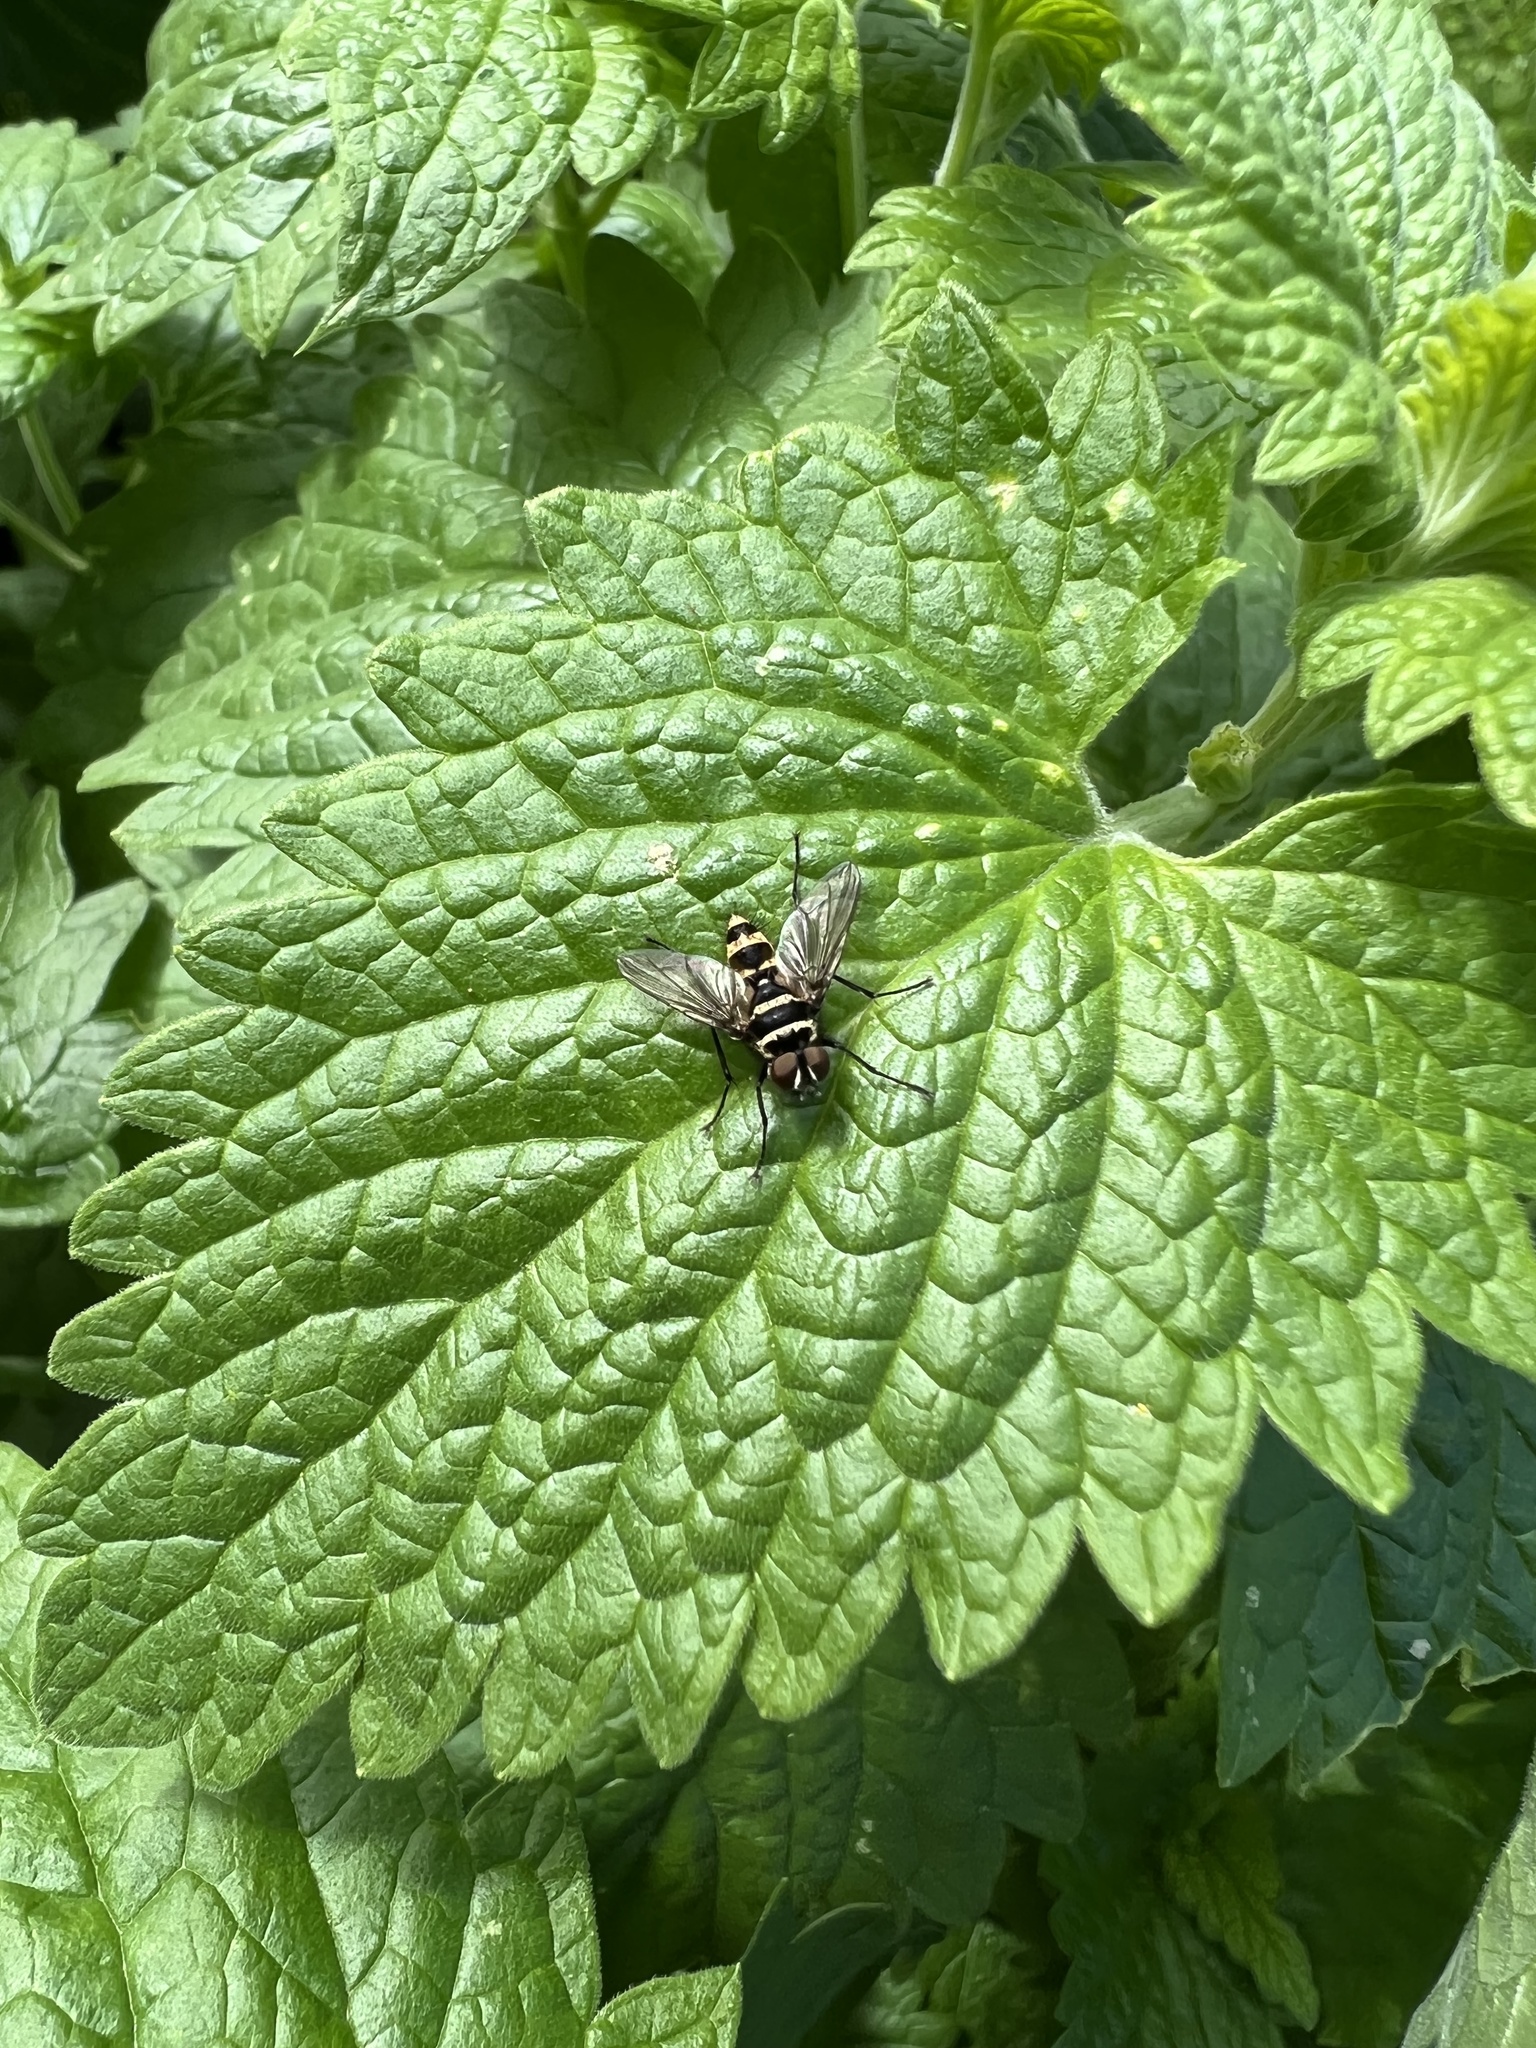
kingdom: Animalia
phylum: Arthropoda
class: Insecta
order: Diptera
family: Tachinidae
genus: Trigonospila
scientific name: Trigonospila brevifacies
